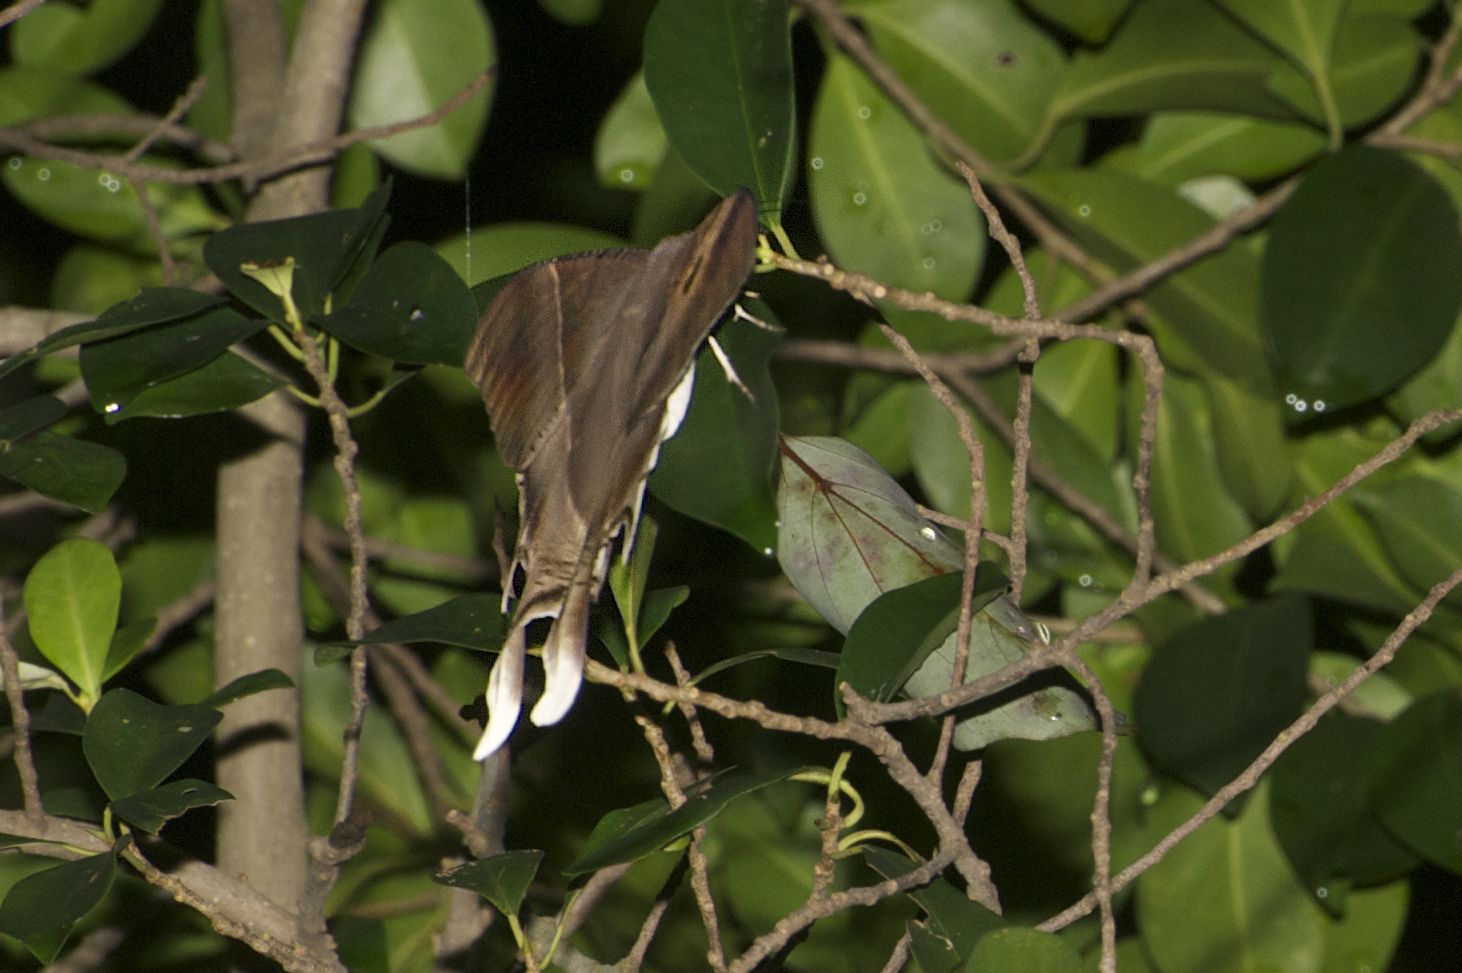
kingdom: Animalia
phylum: Arthropoda
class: Insecta
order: Lepidoptera
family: Uraniidae
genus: Lyssa
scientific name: Lyssa zampa
